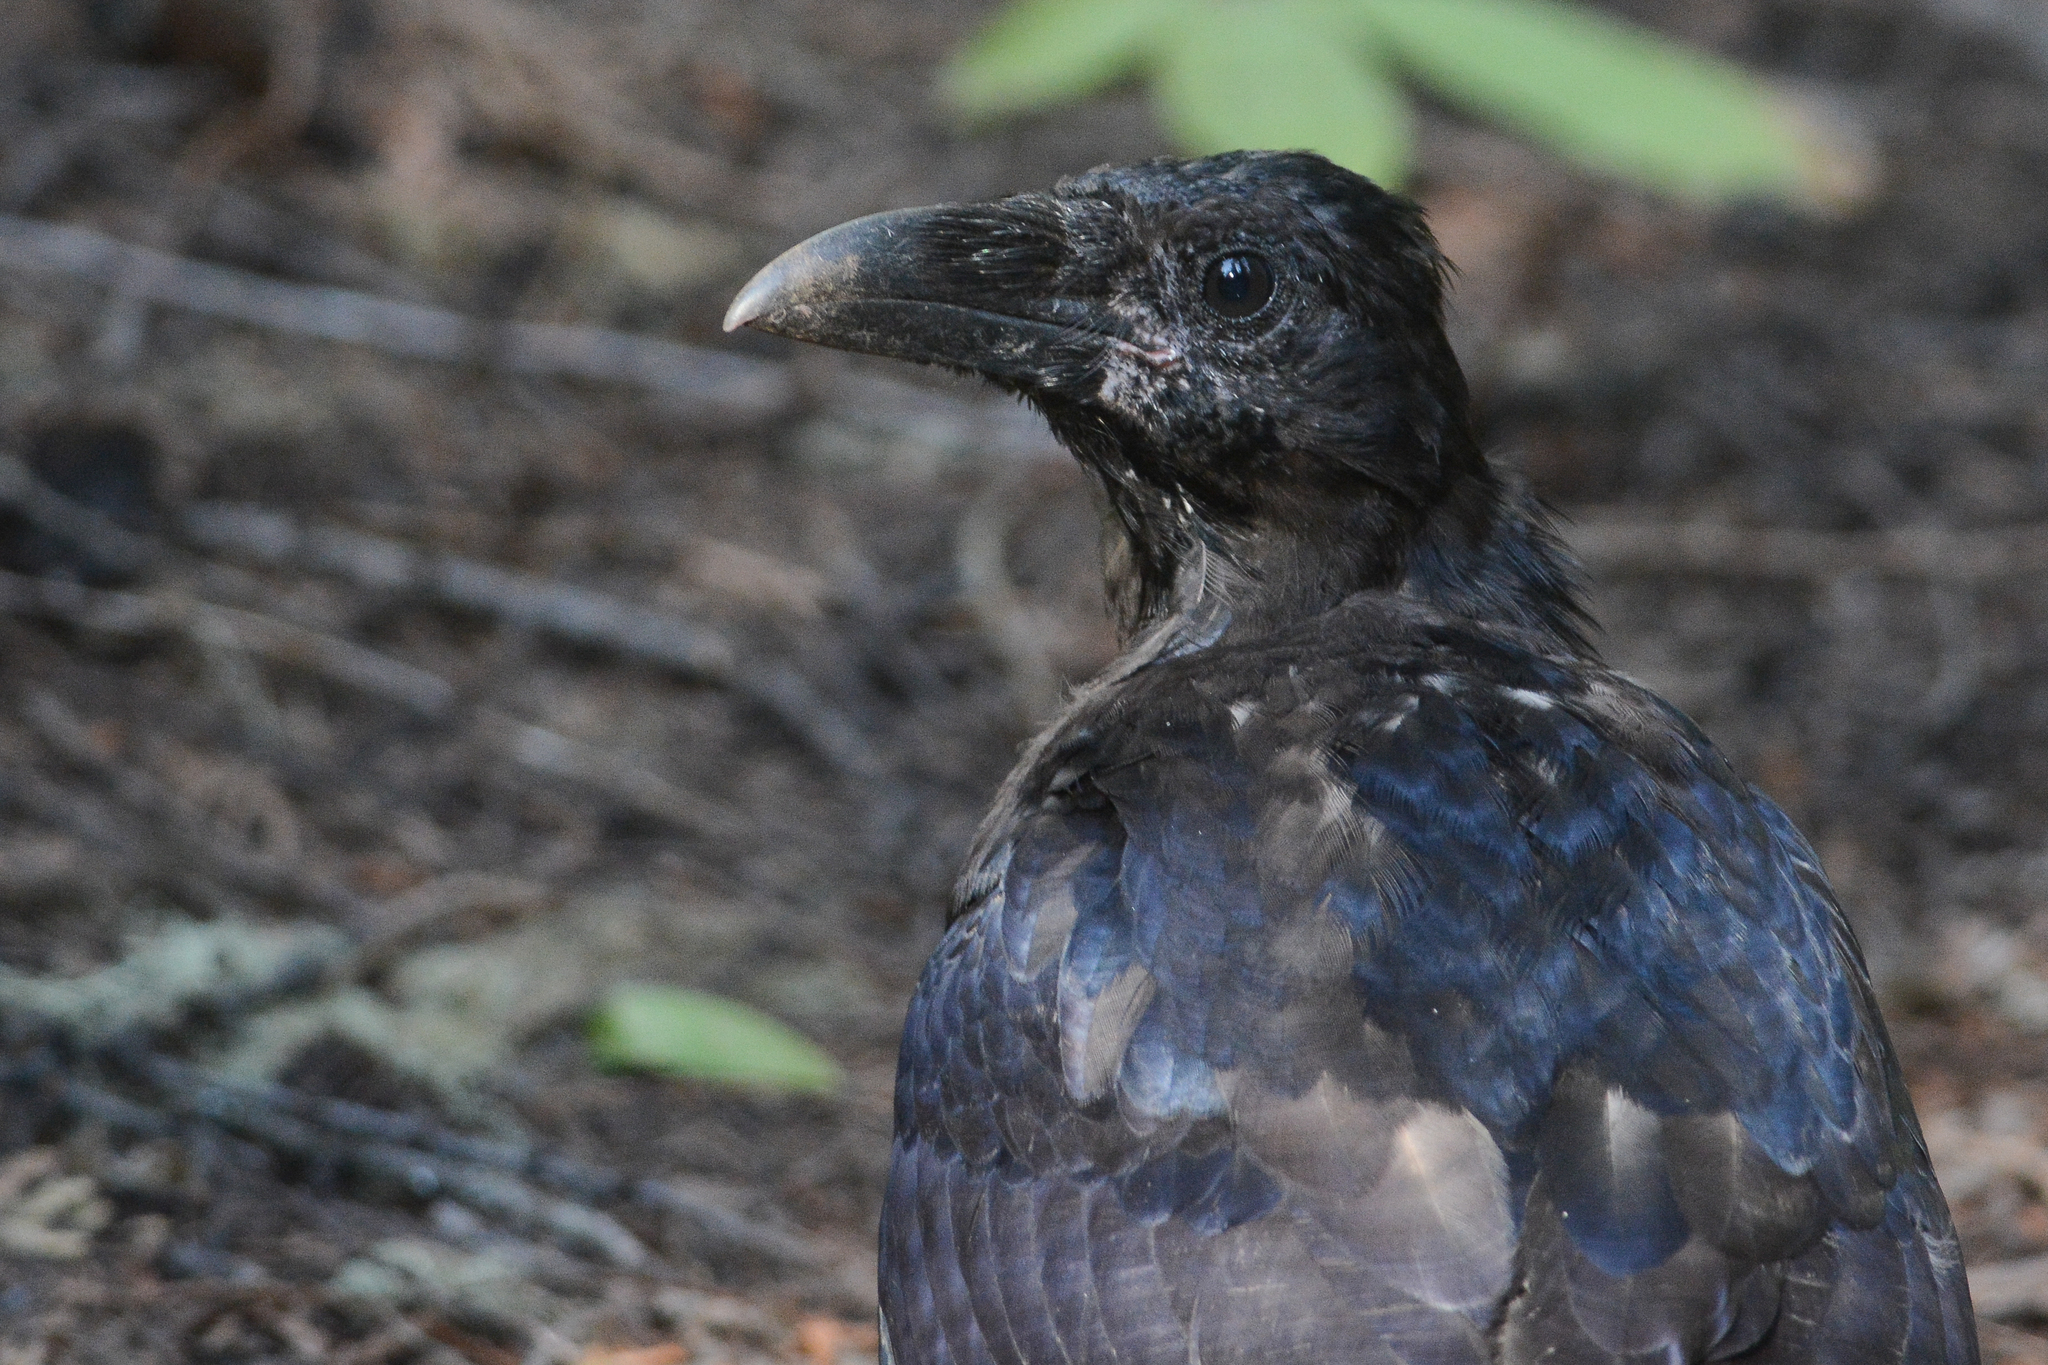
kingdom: Animalia
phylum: Chordata
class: Aves
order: Passeriformes
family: Corvidae
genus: Corvus
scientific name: Corvus corax
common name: Common raven
